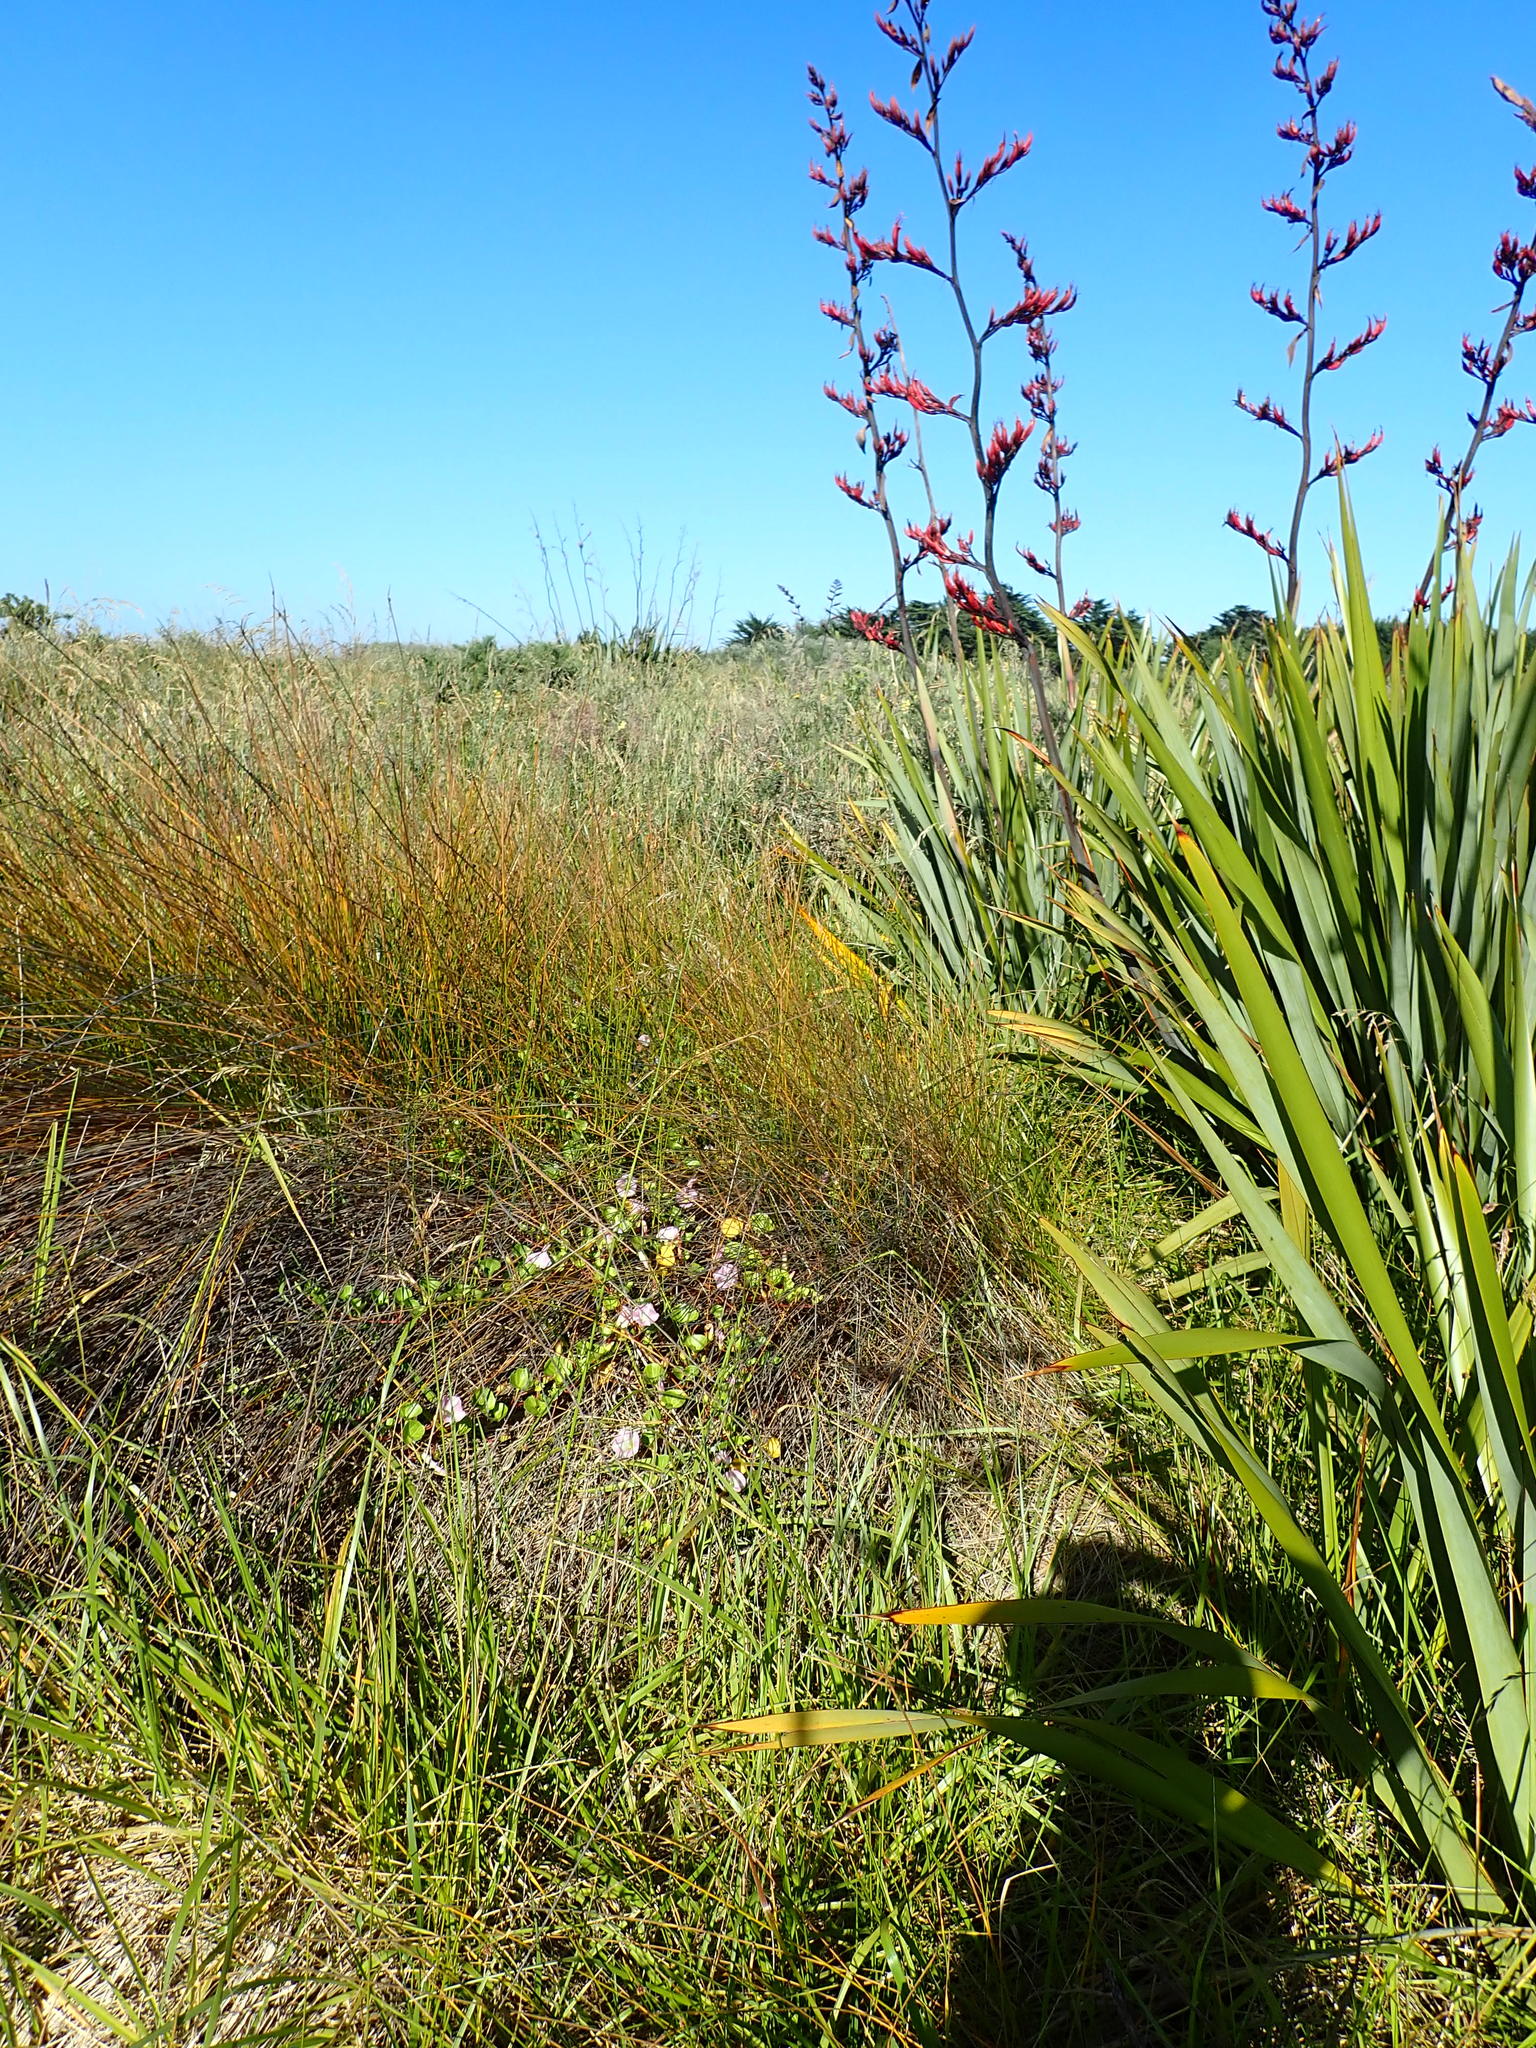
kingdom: Plantae
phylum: Tracheophyta
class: Magnoliopsida
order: Solanales
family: Convolvulaceae
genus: Calystegia
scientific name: Calystegia soldanella
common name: Sea bindweed
